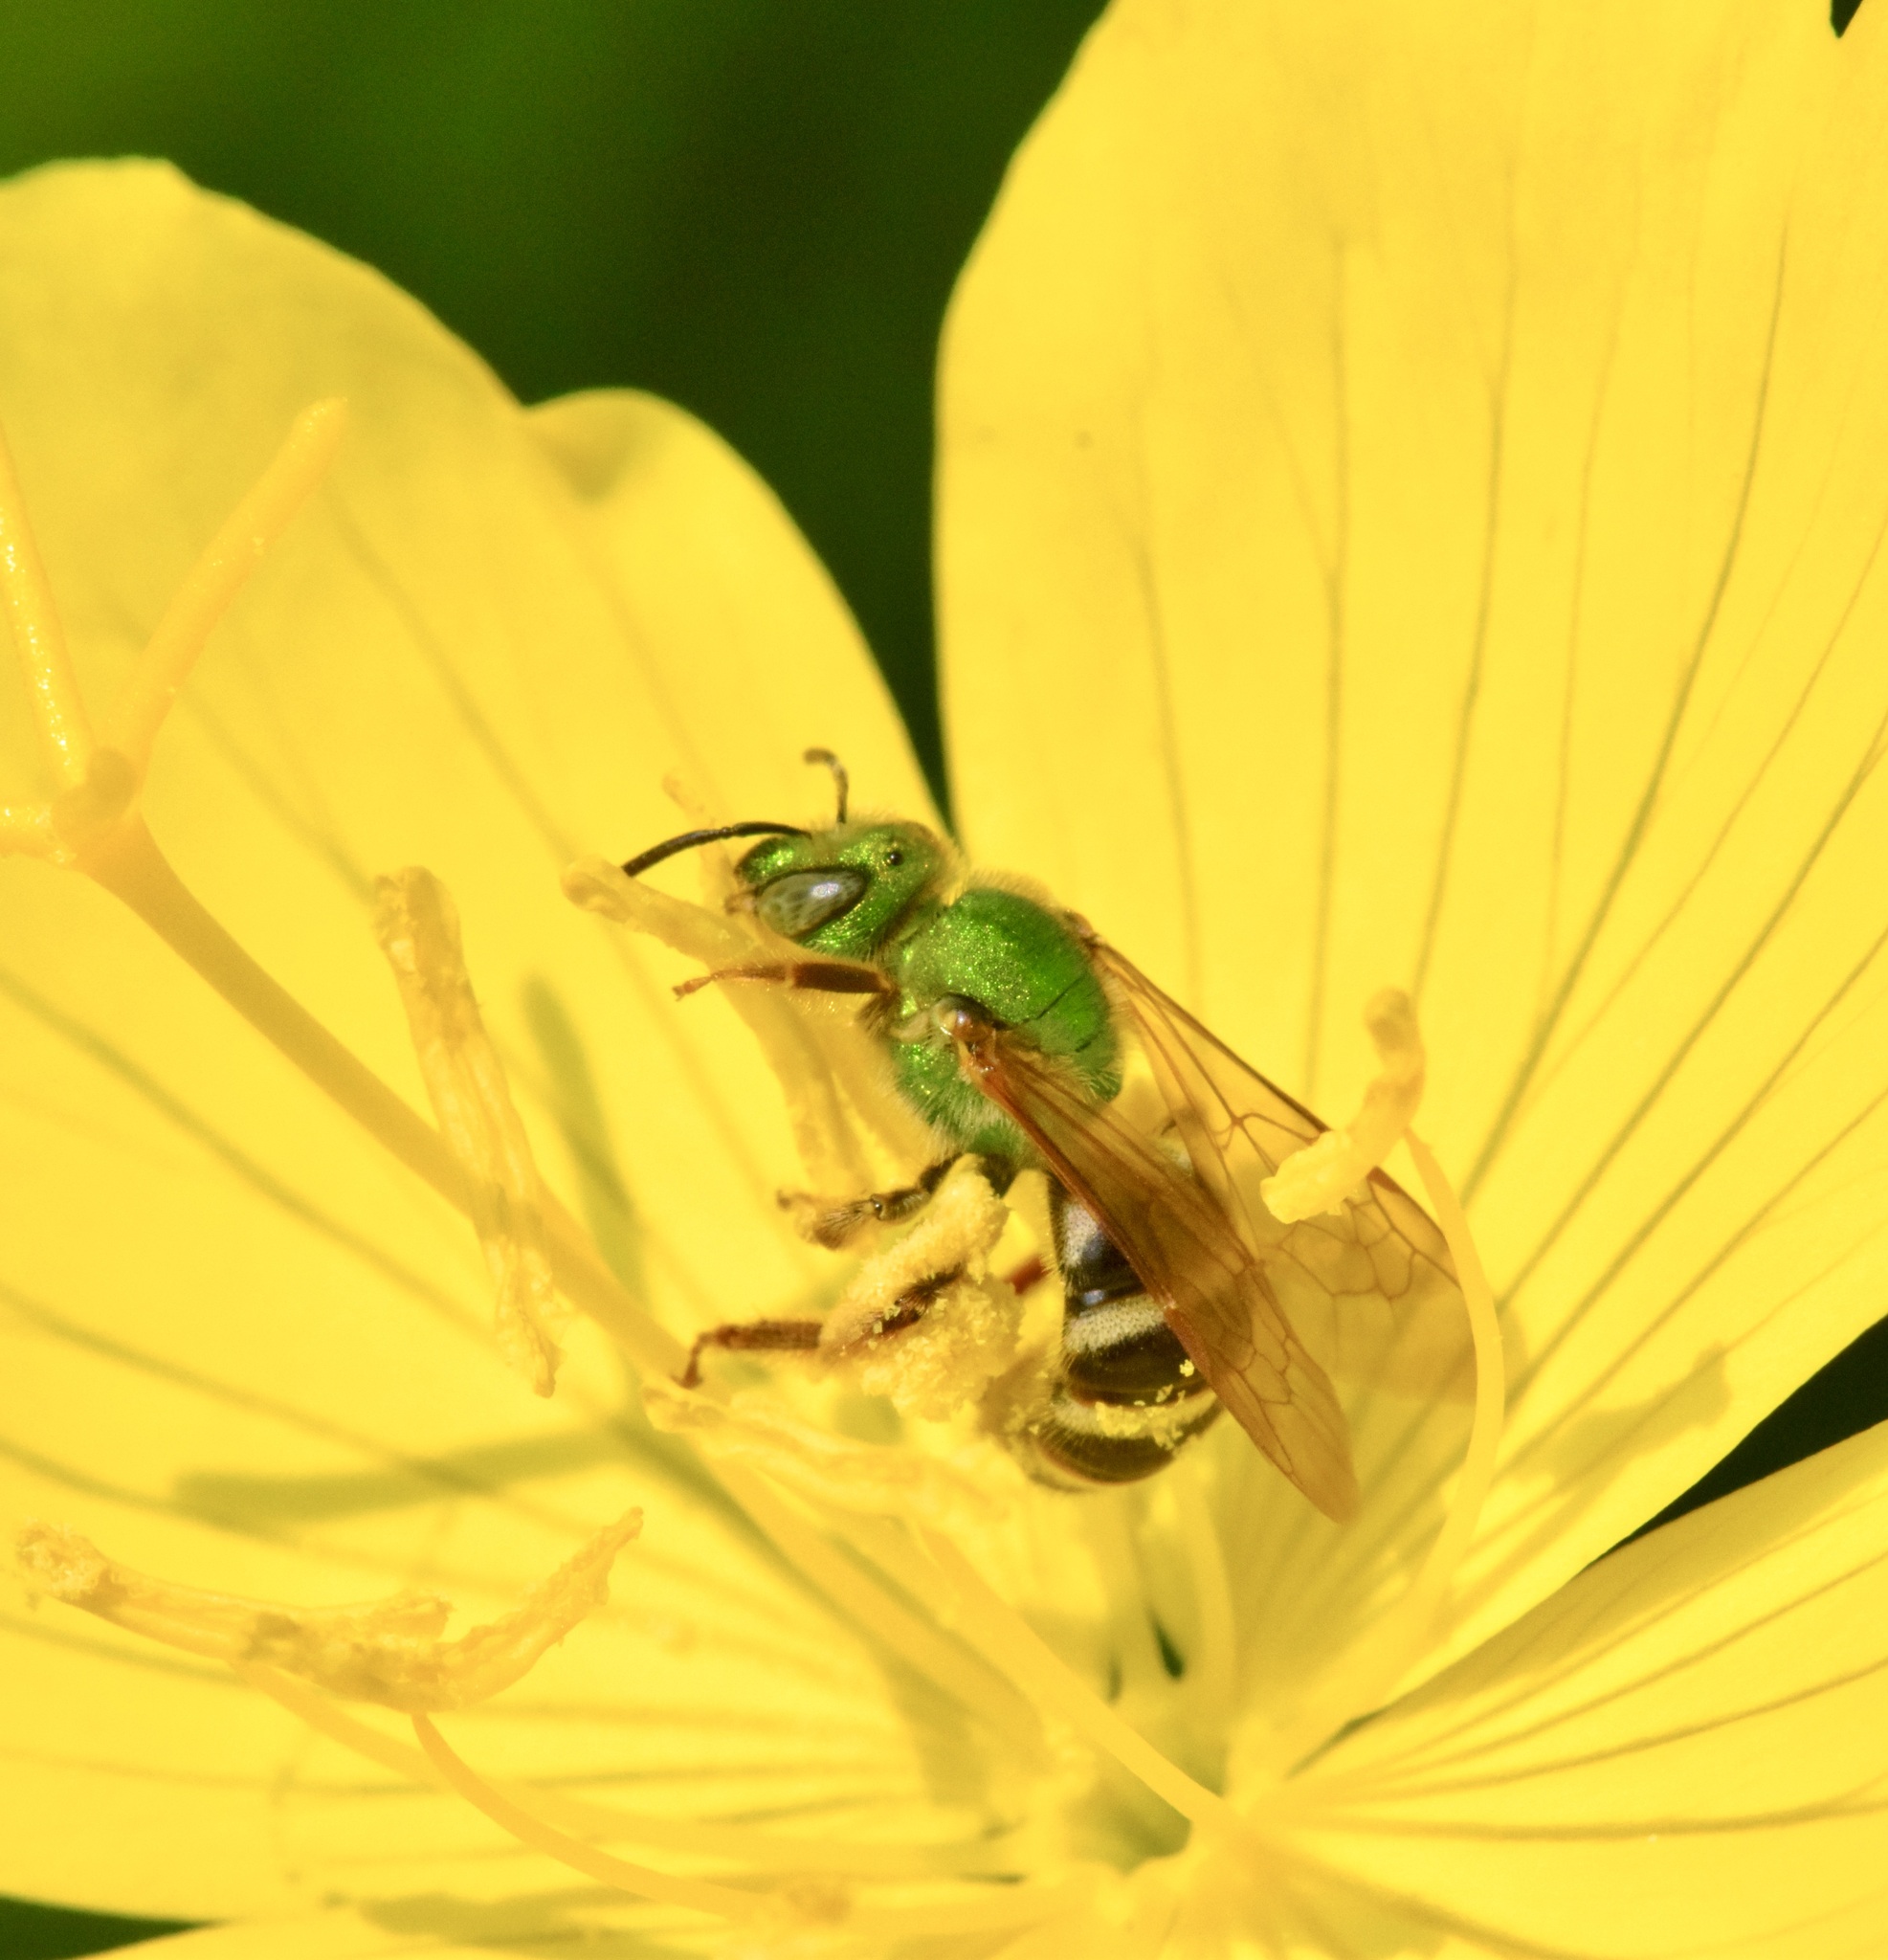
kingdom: Animalia
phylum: Arthropoda
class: Insecta
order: Hymenoptera
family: Halictidae
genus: Agapostemon
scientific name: Agapostemon virescens
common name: Bicolored striped sweat bee
